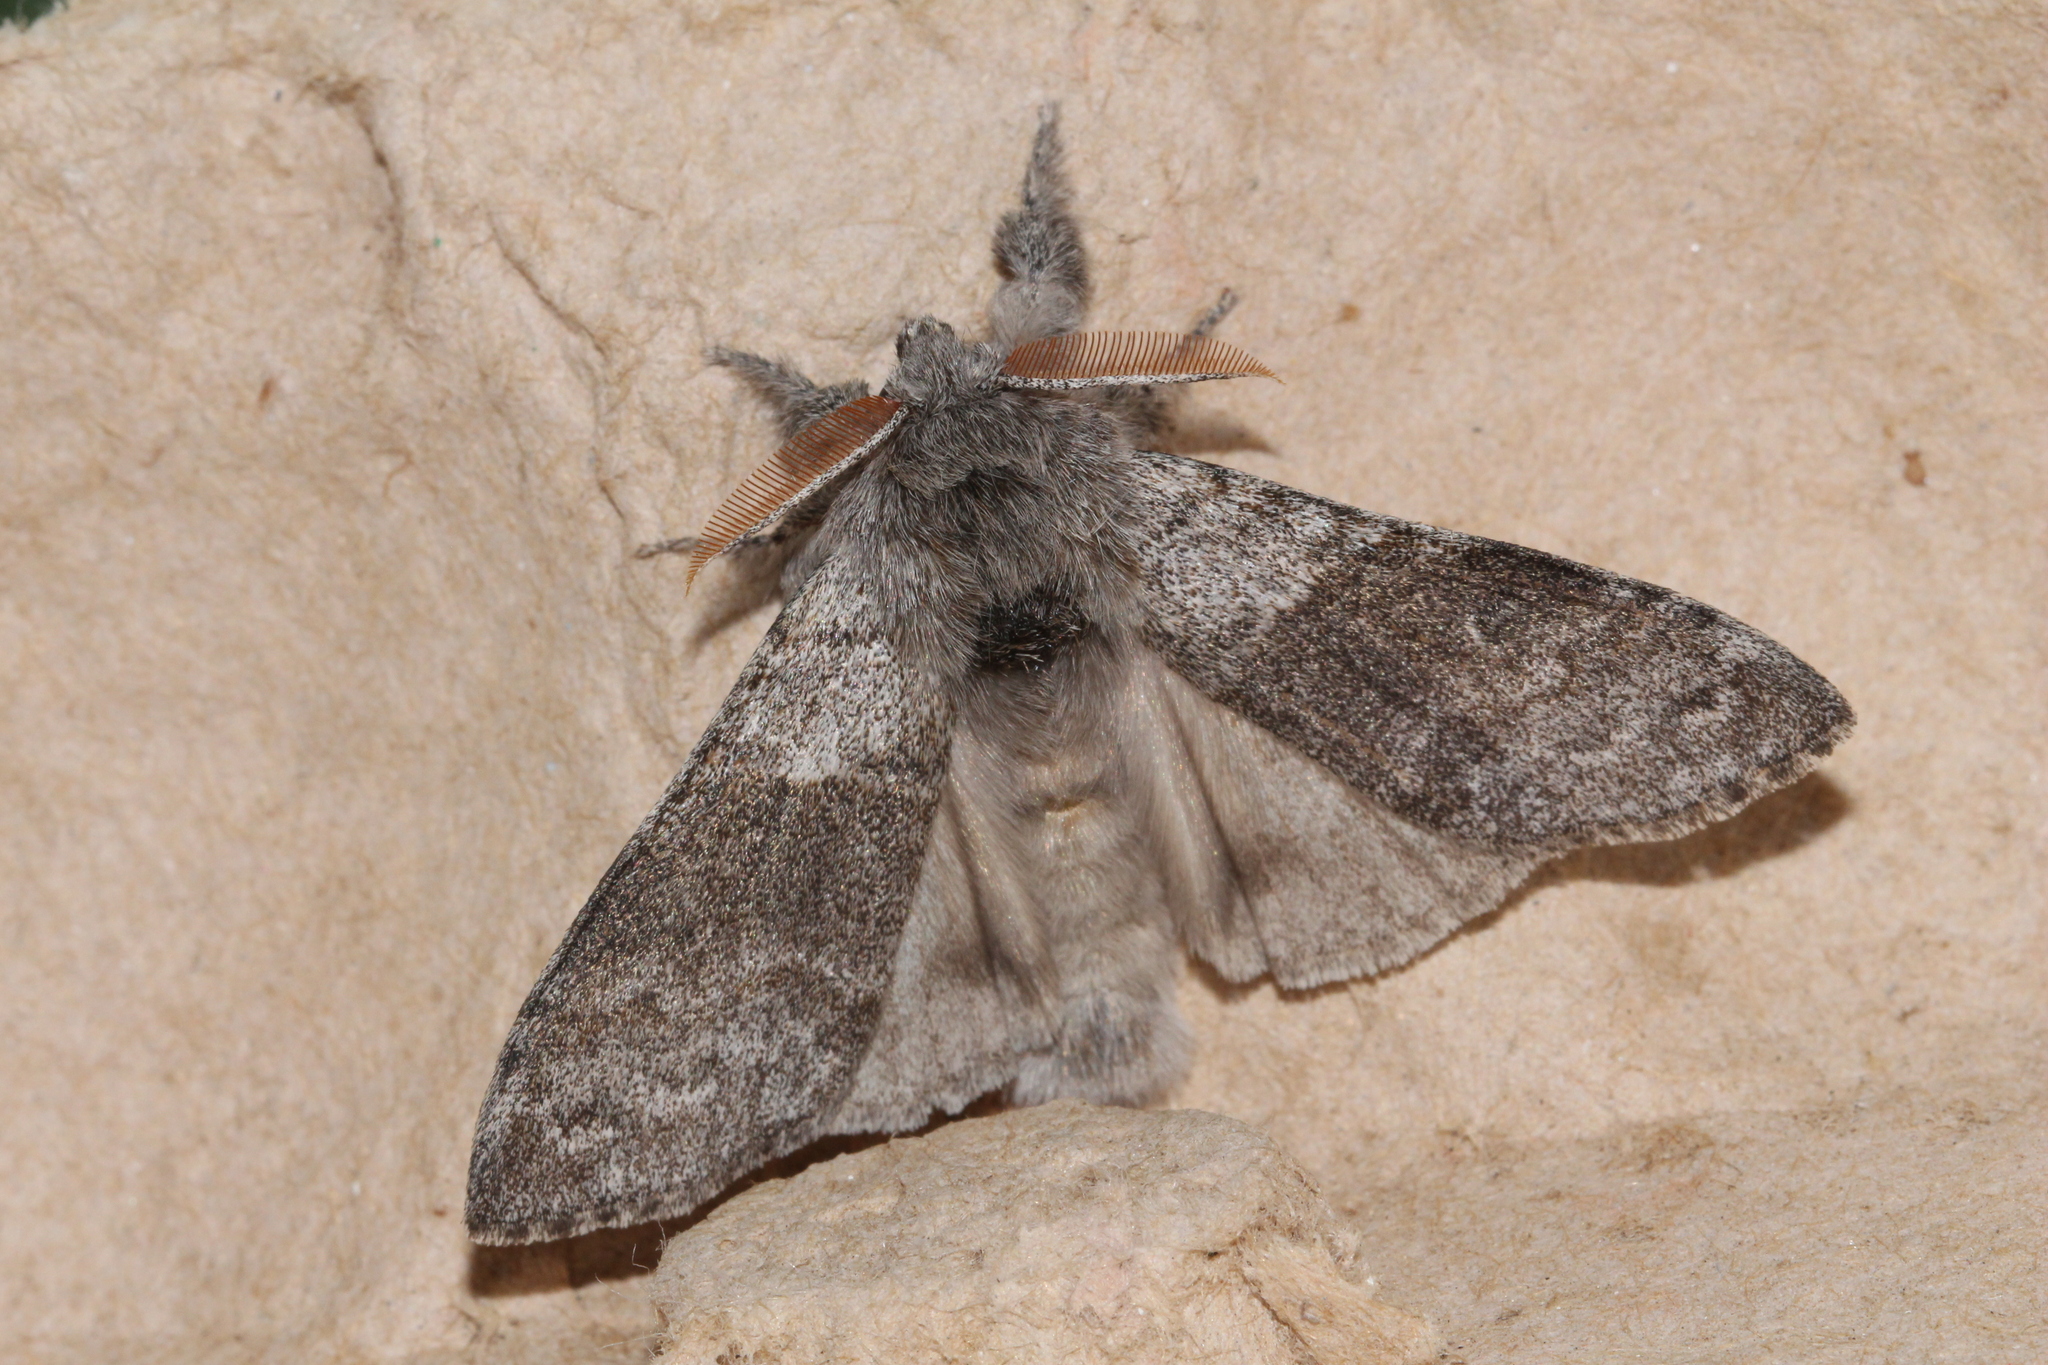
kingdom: Animalia
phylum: Arthropoda
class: Insecta
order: Lepidoptera
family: Erebidae
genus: Calliteara
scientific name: Calliteara pudibunda
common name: Pale tussock
